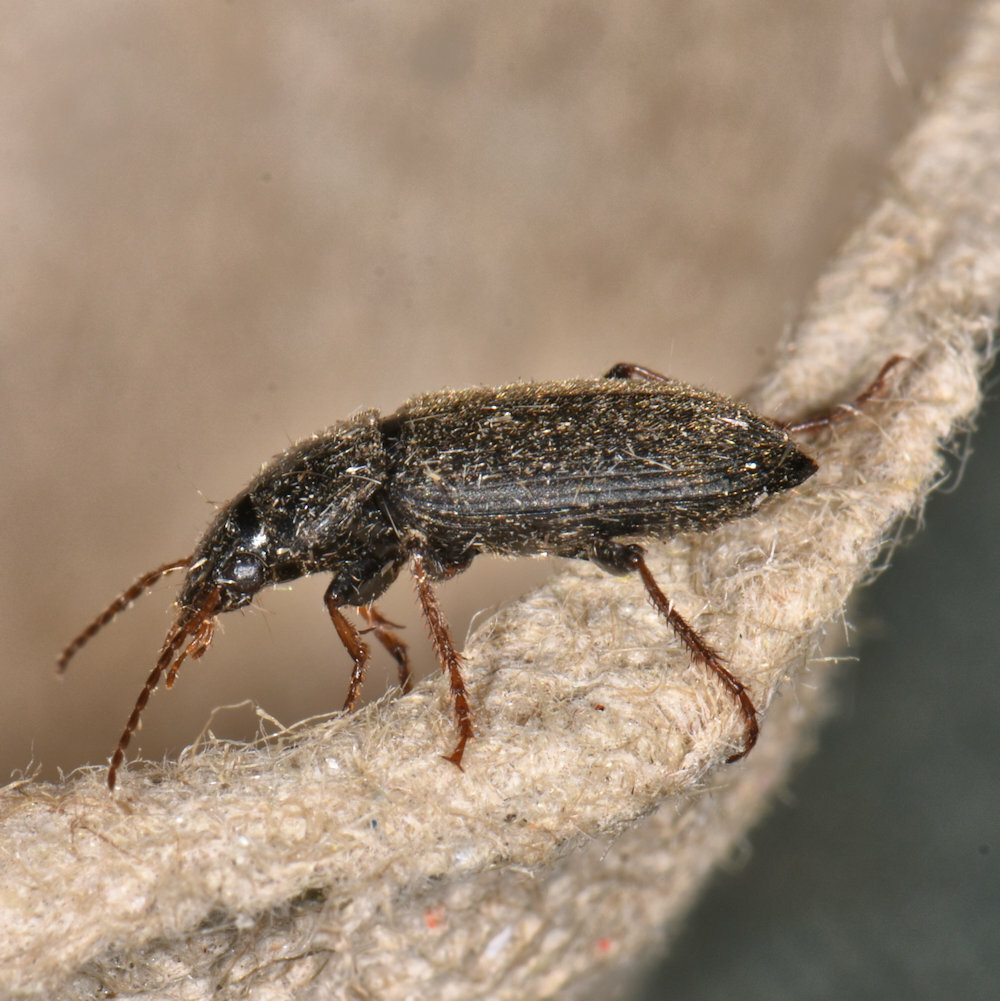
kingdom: Animalia
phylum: Arthropoda
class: Insecta
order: Coleoptera
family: Carabidae
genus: Amphasia
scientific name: Amphasia sericea
